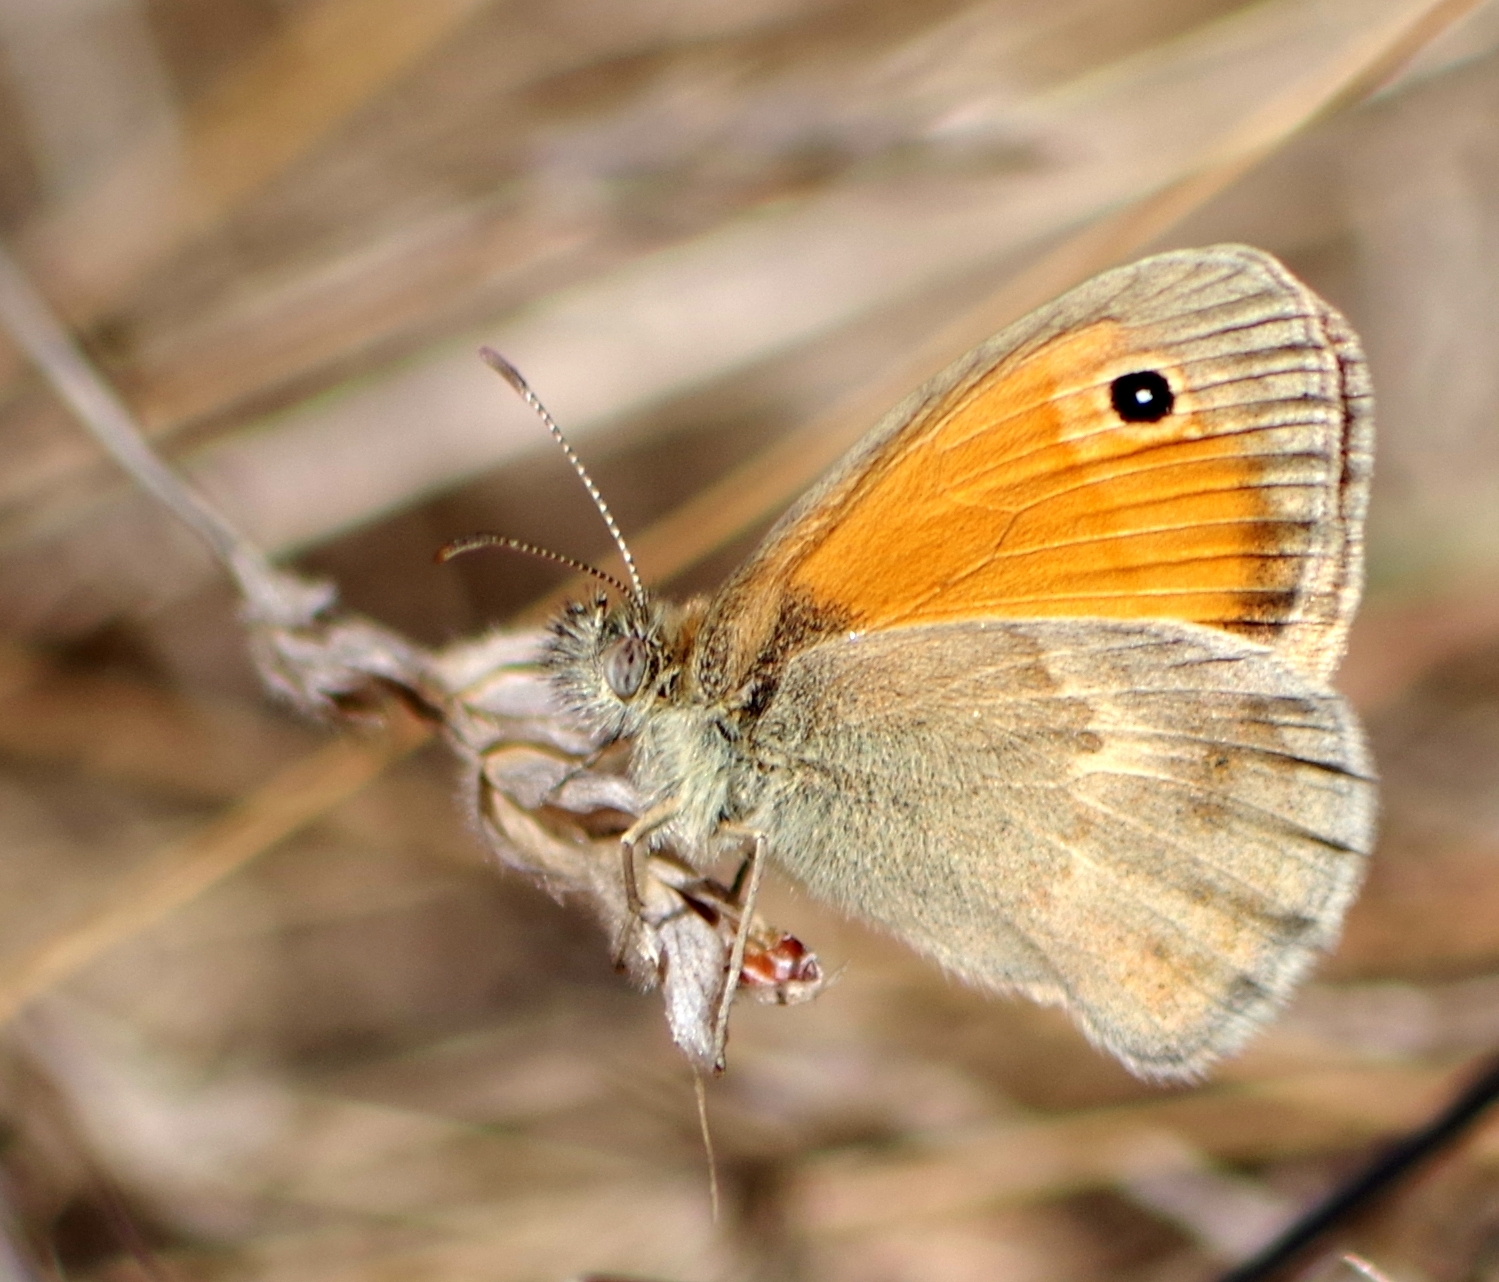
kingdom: Animalia
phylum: Arthropoda
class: Insecta
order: Lepidoptera
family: Nymphalidae
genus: Coenonympha
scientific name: Coenonympha pamphilus
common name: Small heath
